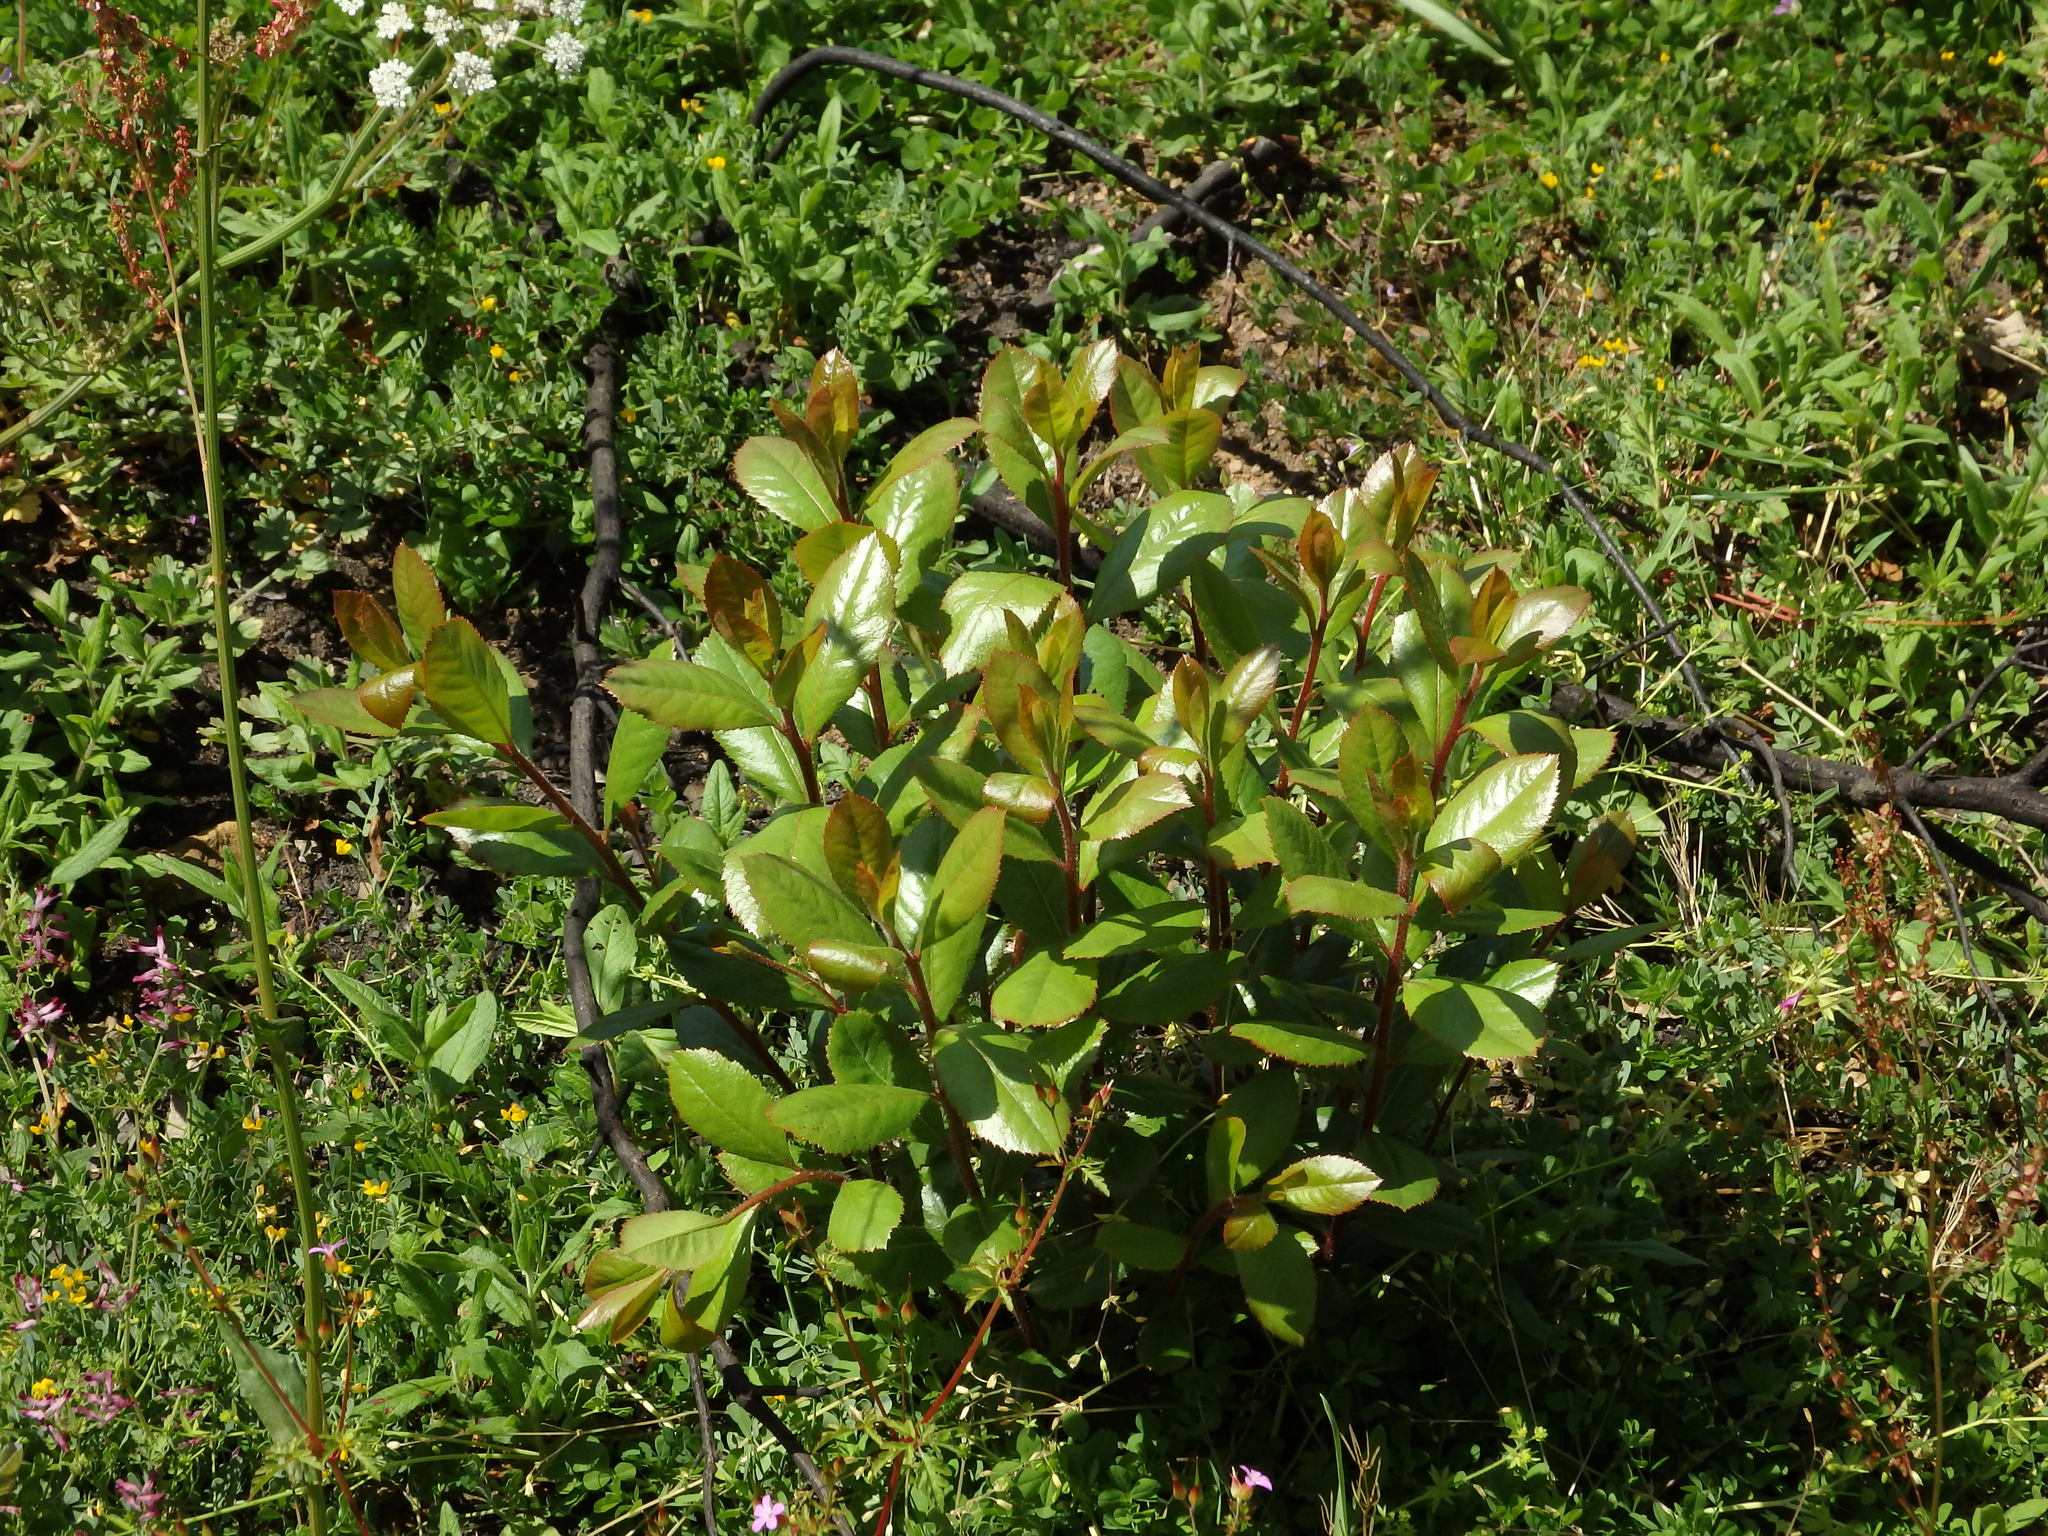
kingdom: Plantae
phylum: Tracheophyta
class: Magnoliopsida
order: Ericales
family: Ericaceae
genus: Arbutus
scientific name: Arbutus unedo
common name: Strawberry-tree
